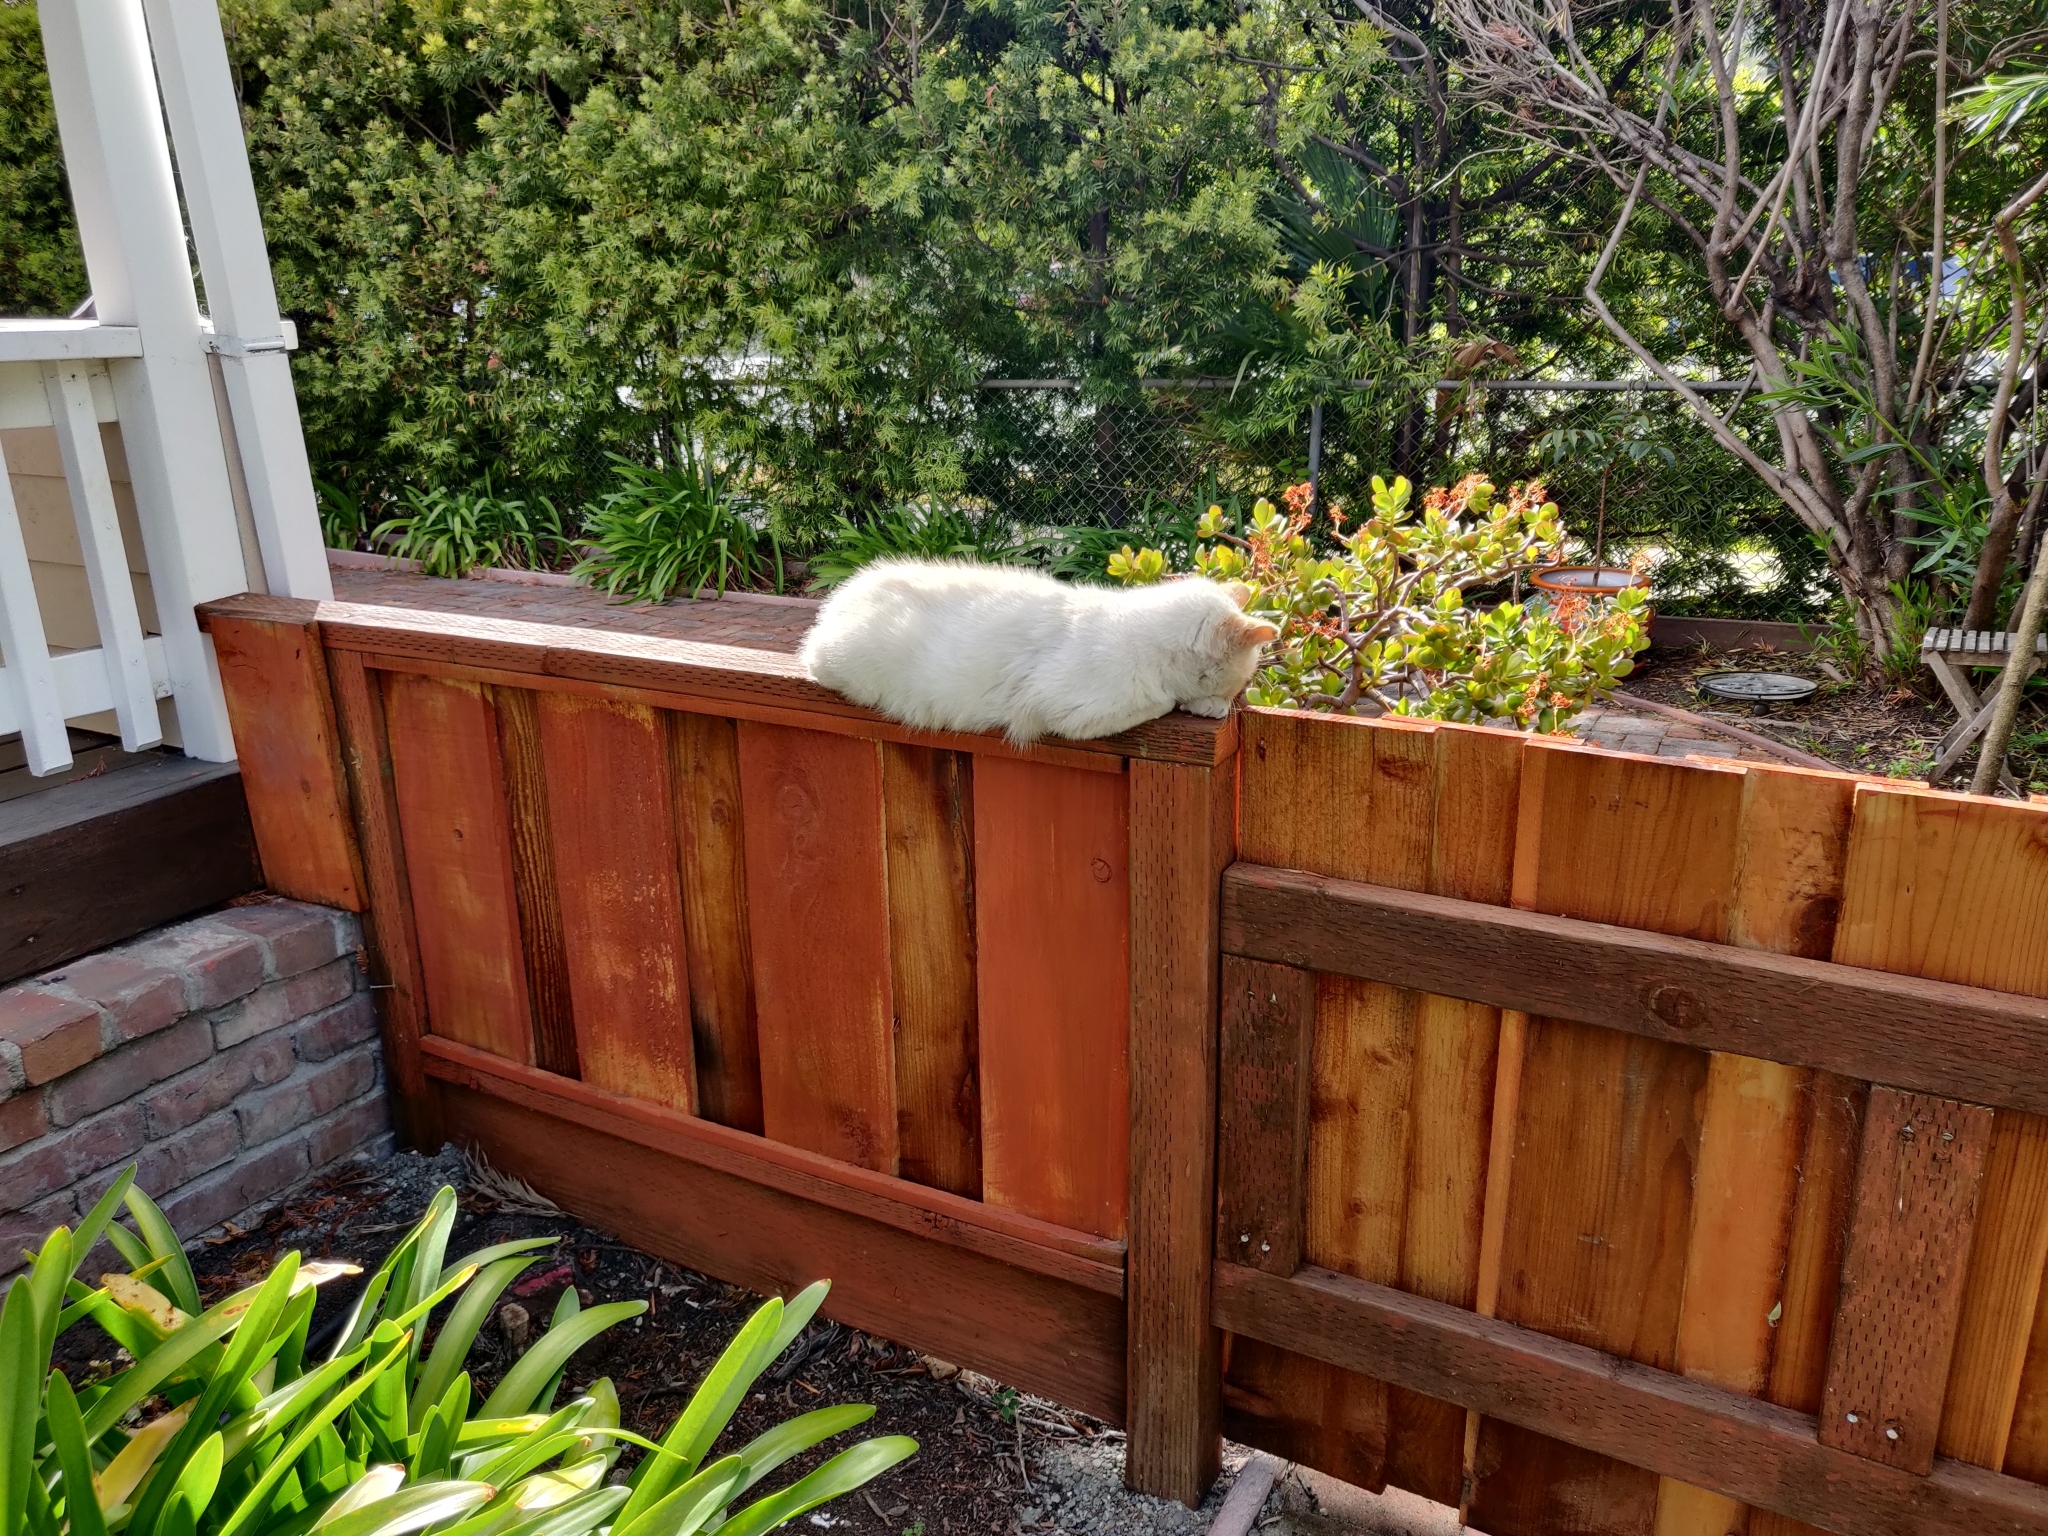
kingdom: Animalia
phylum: Chordata
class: Mammalia
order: Carnivora
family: Felidae
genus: Felis
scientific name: Felis catus
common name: Domestic cat
